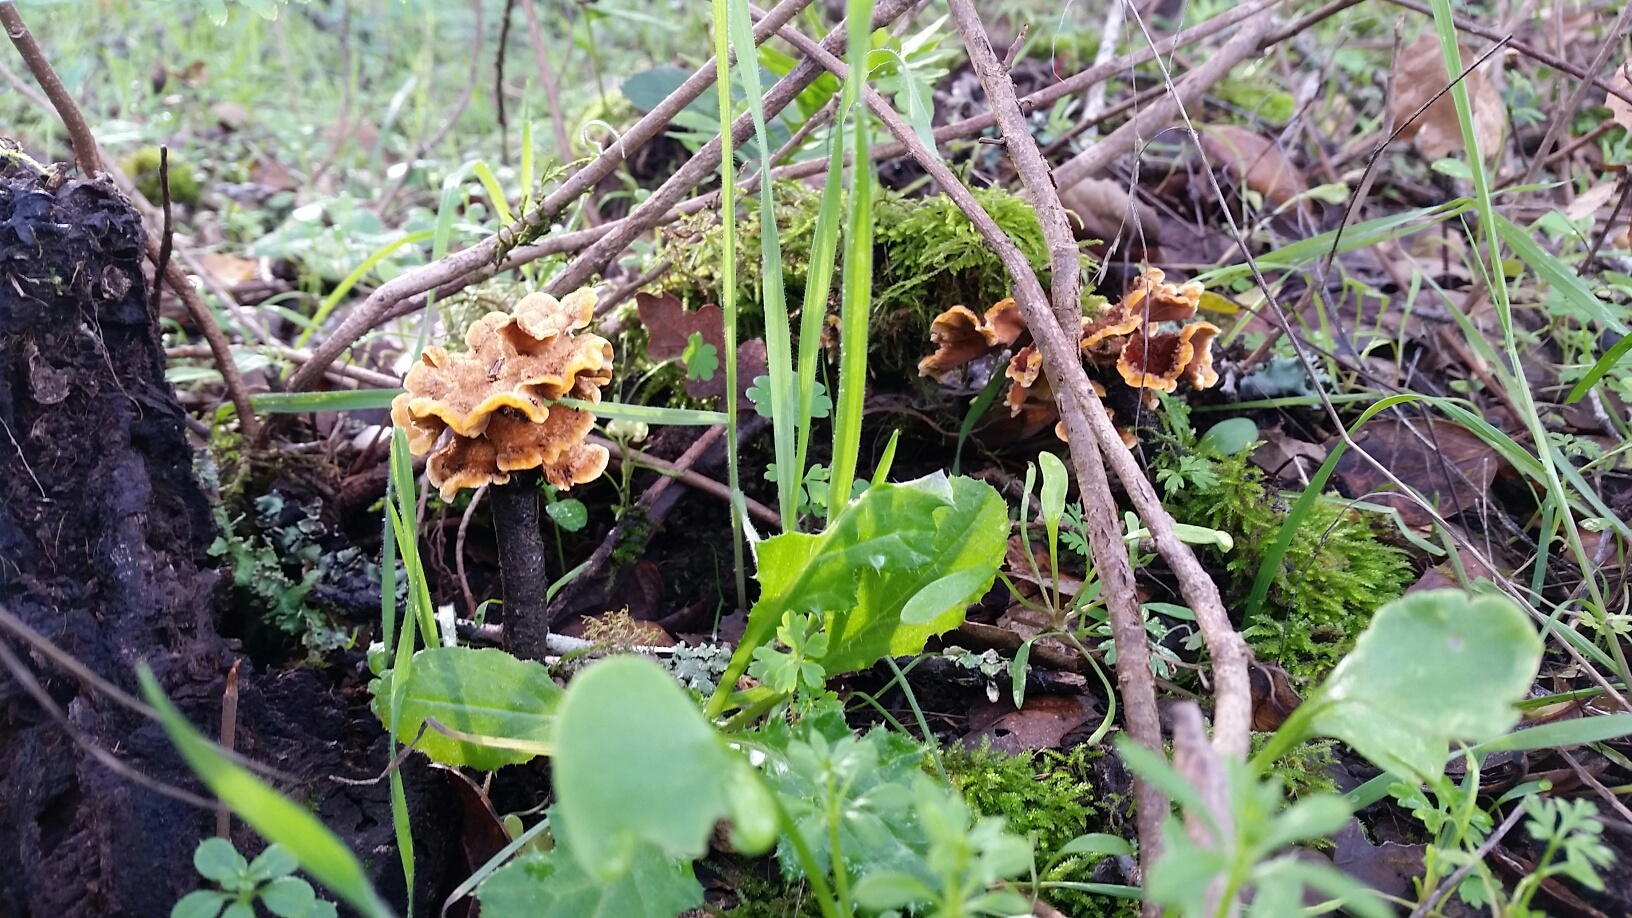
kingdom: Fungi
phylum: Basidiomycota
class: Agaricomycetes
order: Russulales
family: Stereaceae
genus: Stereum
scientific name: Stereum hirsutum
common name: Hairy curtain crust
